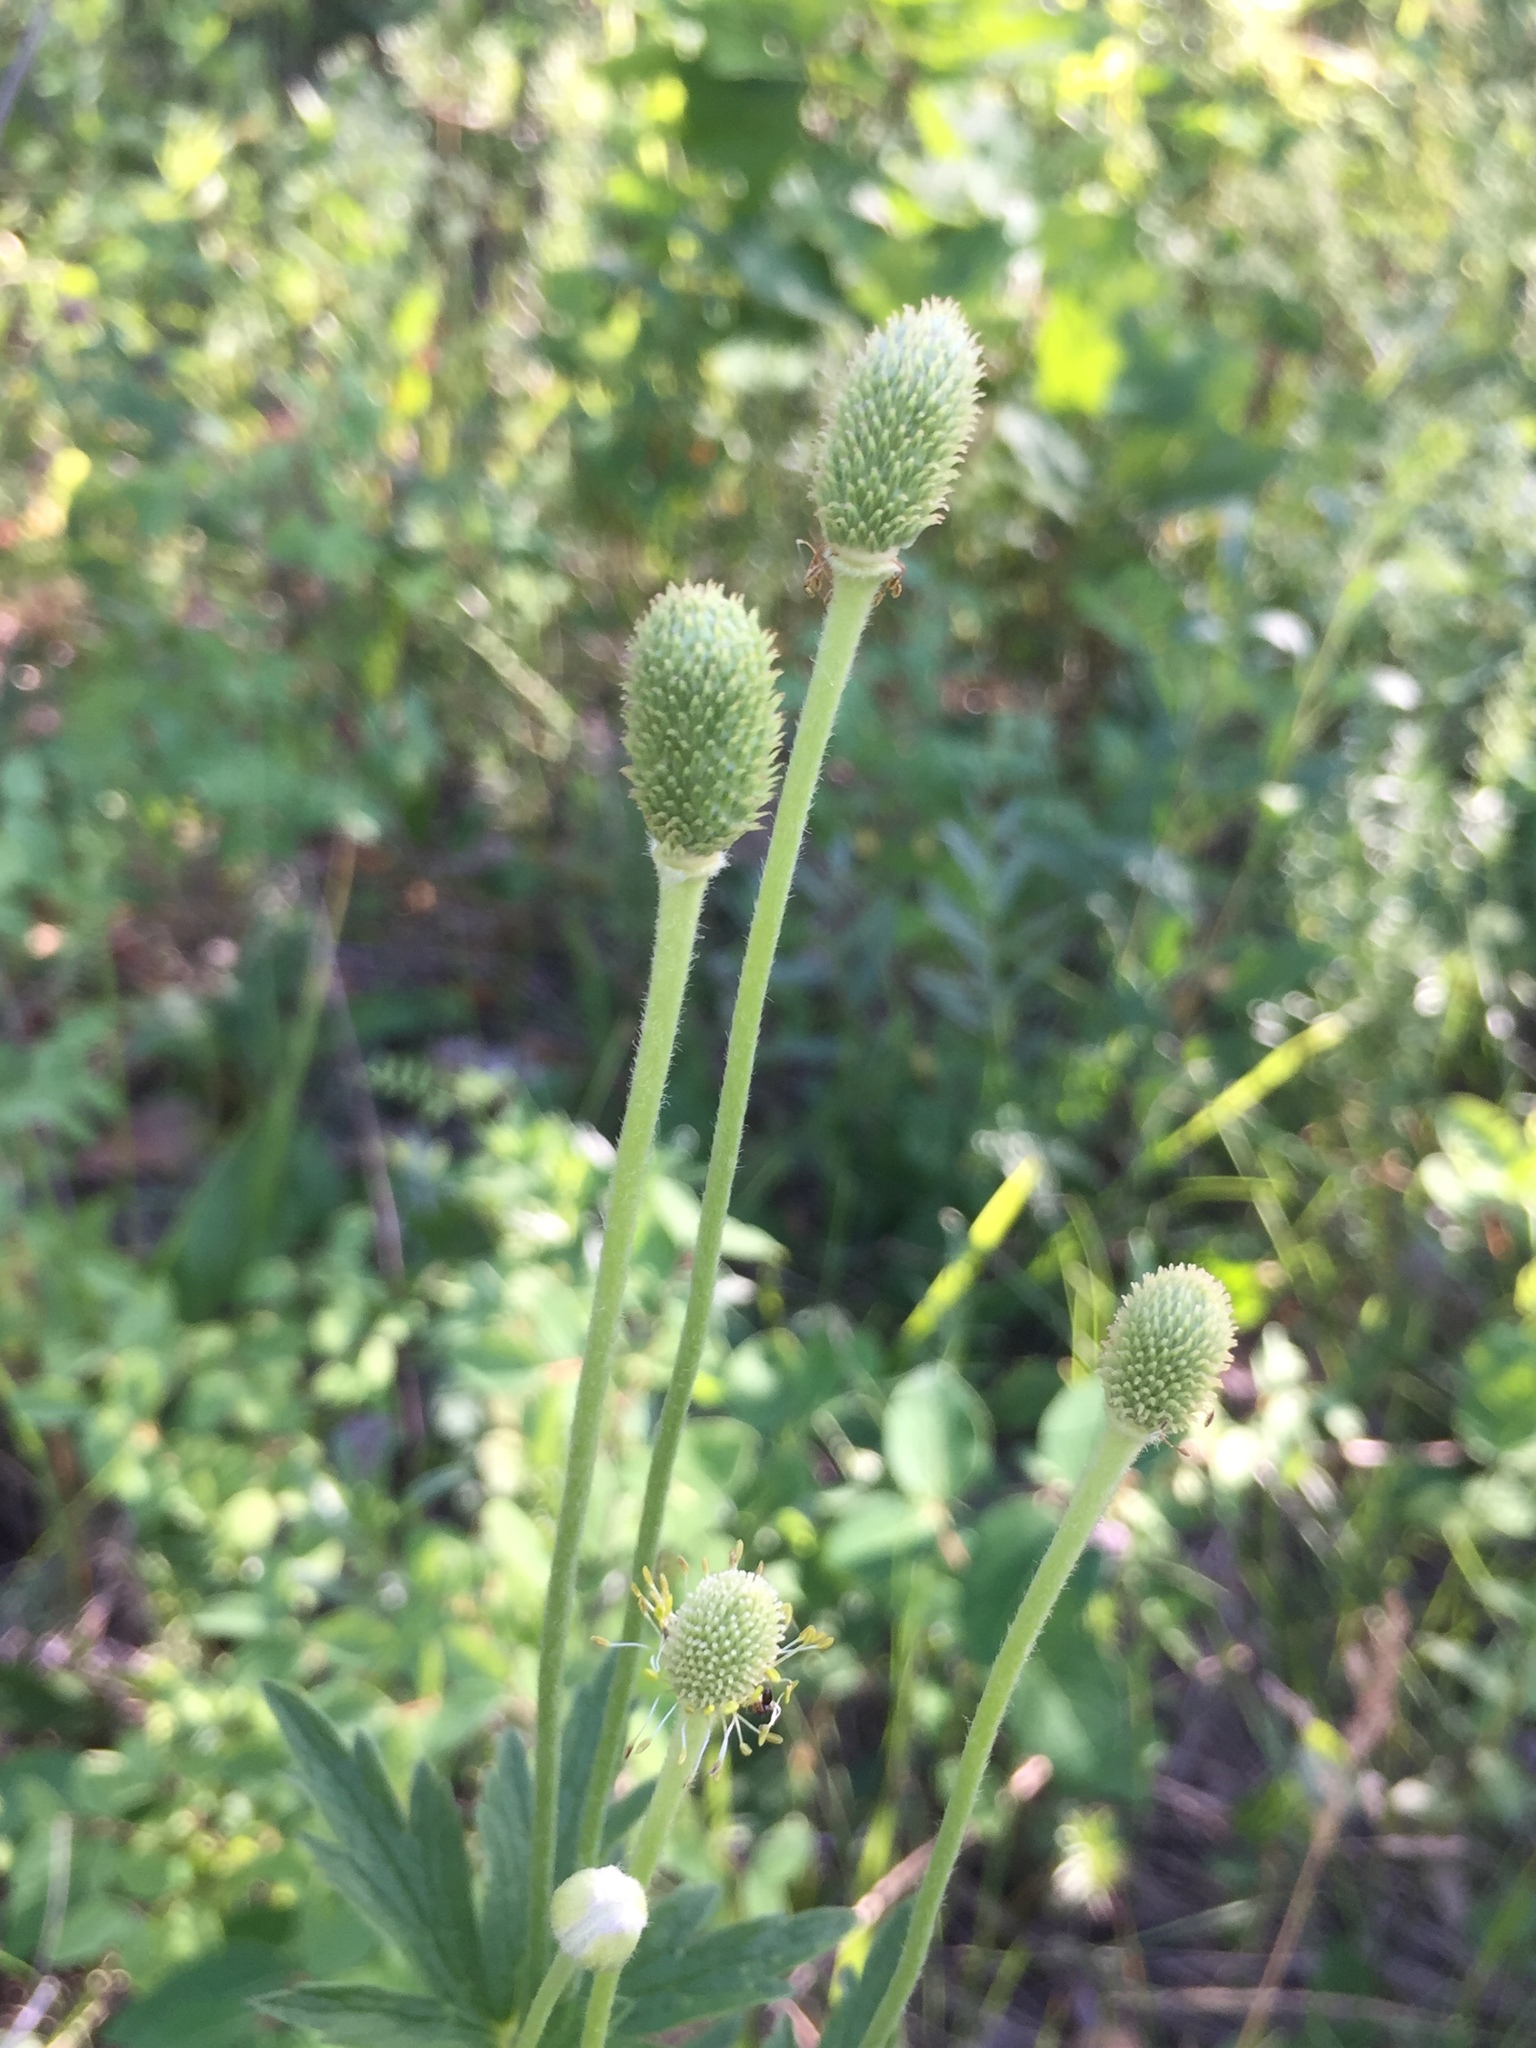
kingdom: Plantae
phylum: Tracheophyta
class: Magnoliopsida
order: Ranunculales
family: Ranunculaceae
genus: Anemone
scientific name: Anemone virginiana
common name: Tall anemone
